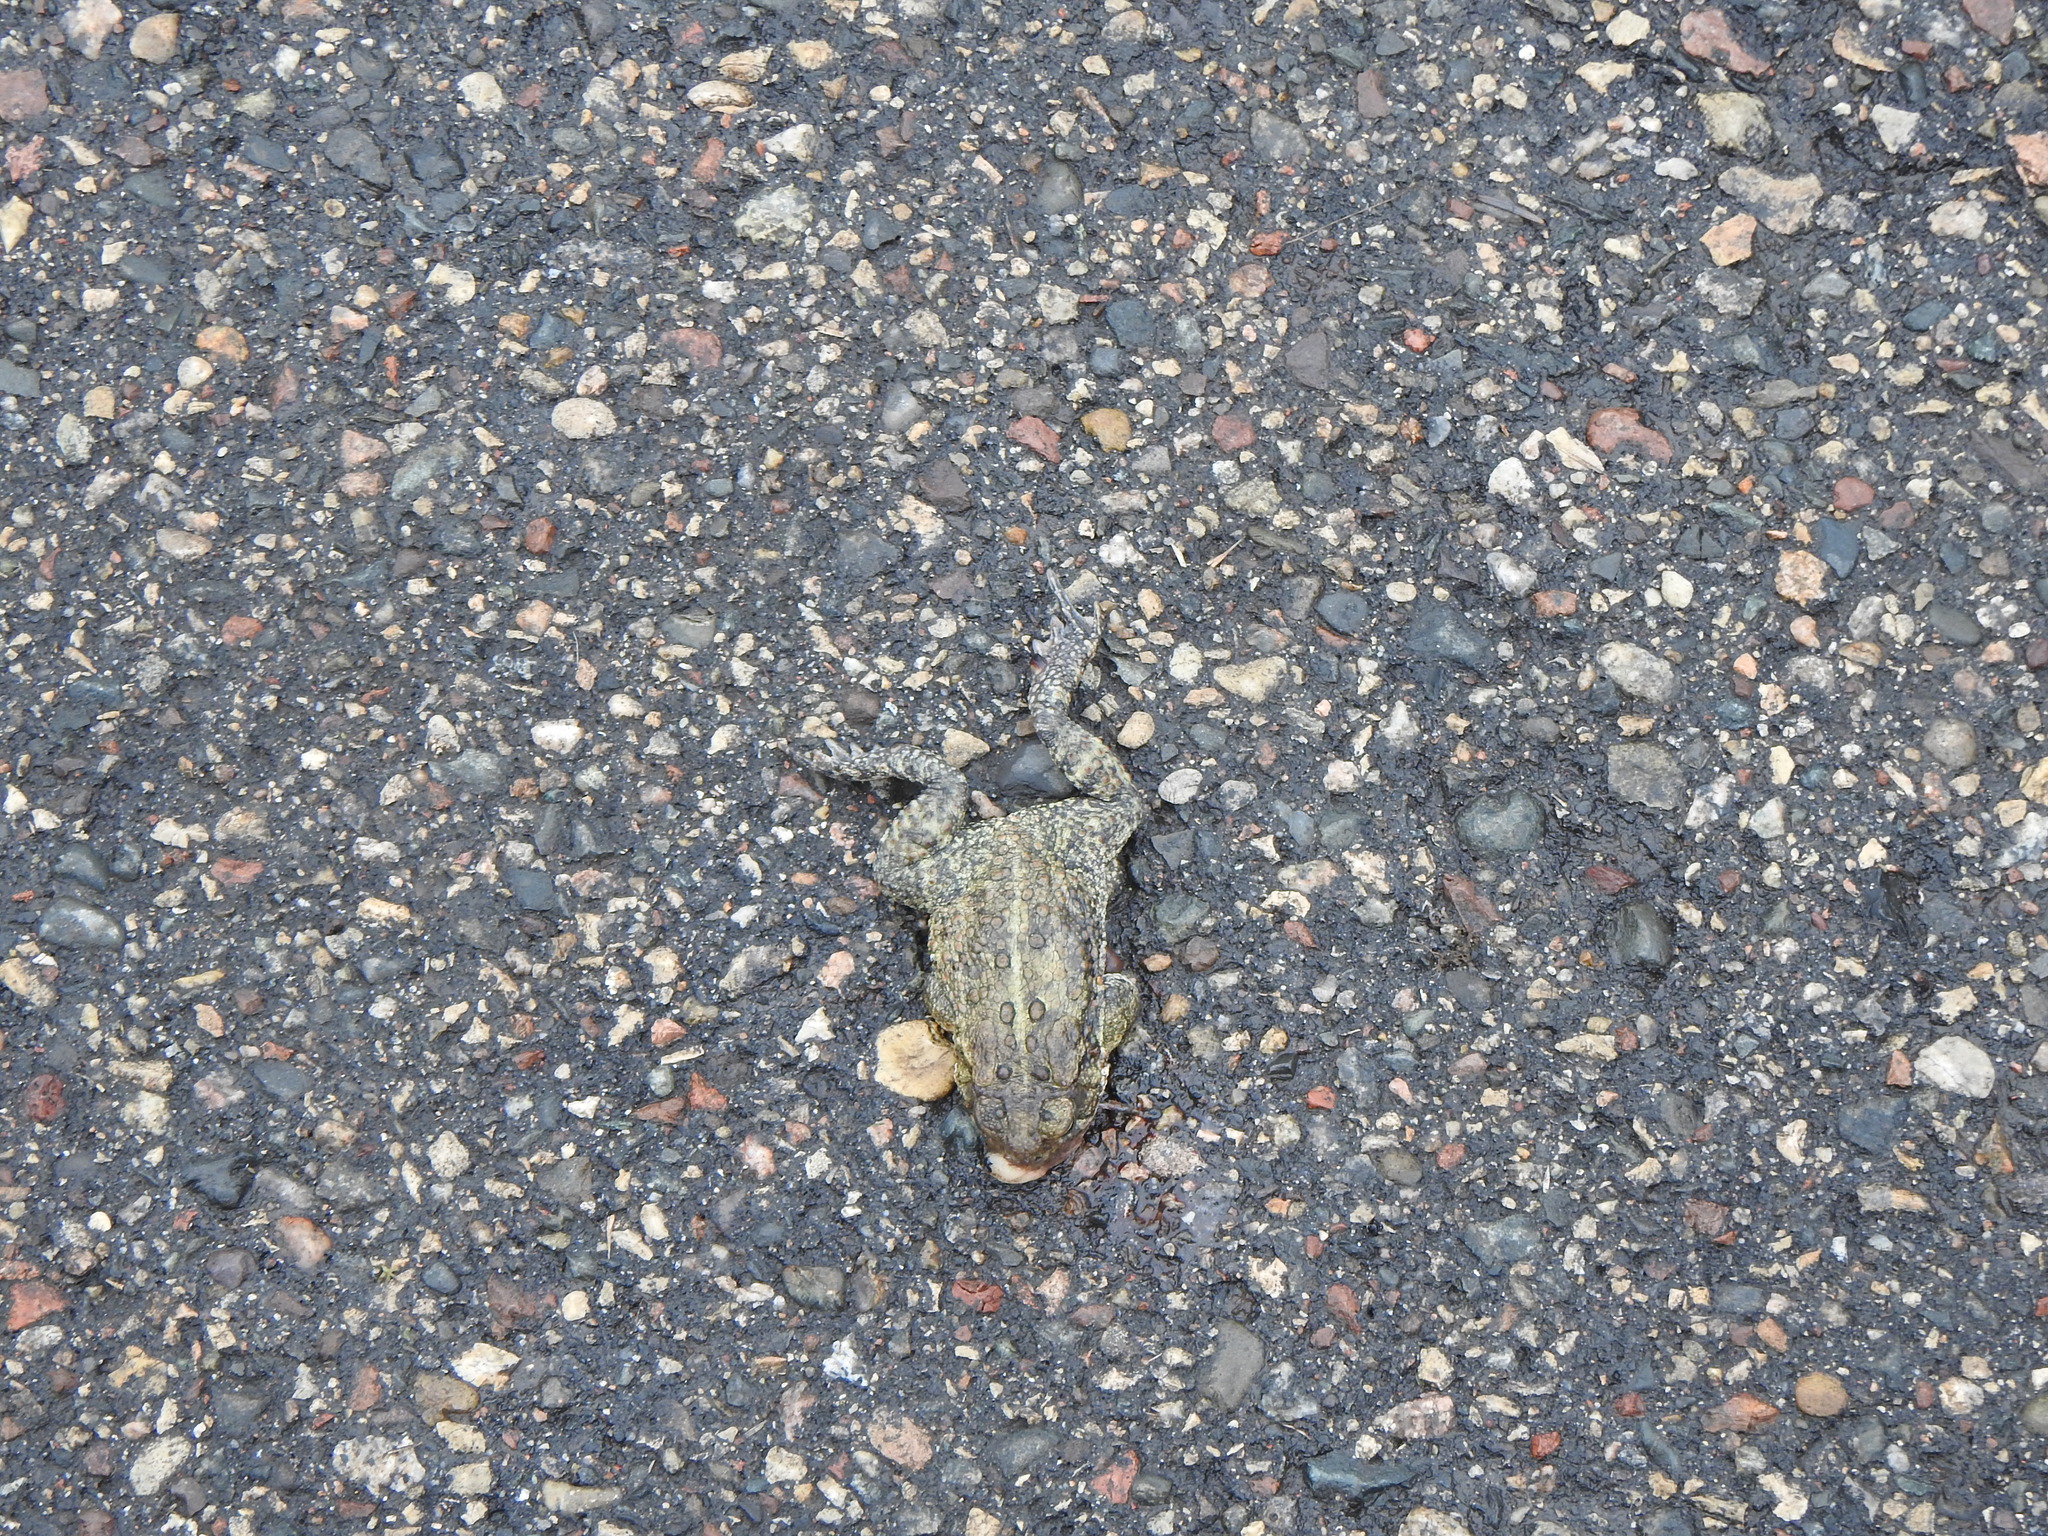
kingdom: Animalia
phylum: Chordata
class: Amphibia
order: Anura
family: Bufonidae
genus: Anaxyrus
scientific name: Anaxyrus americanus
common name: American toad
